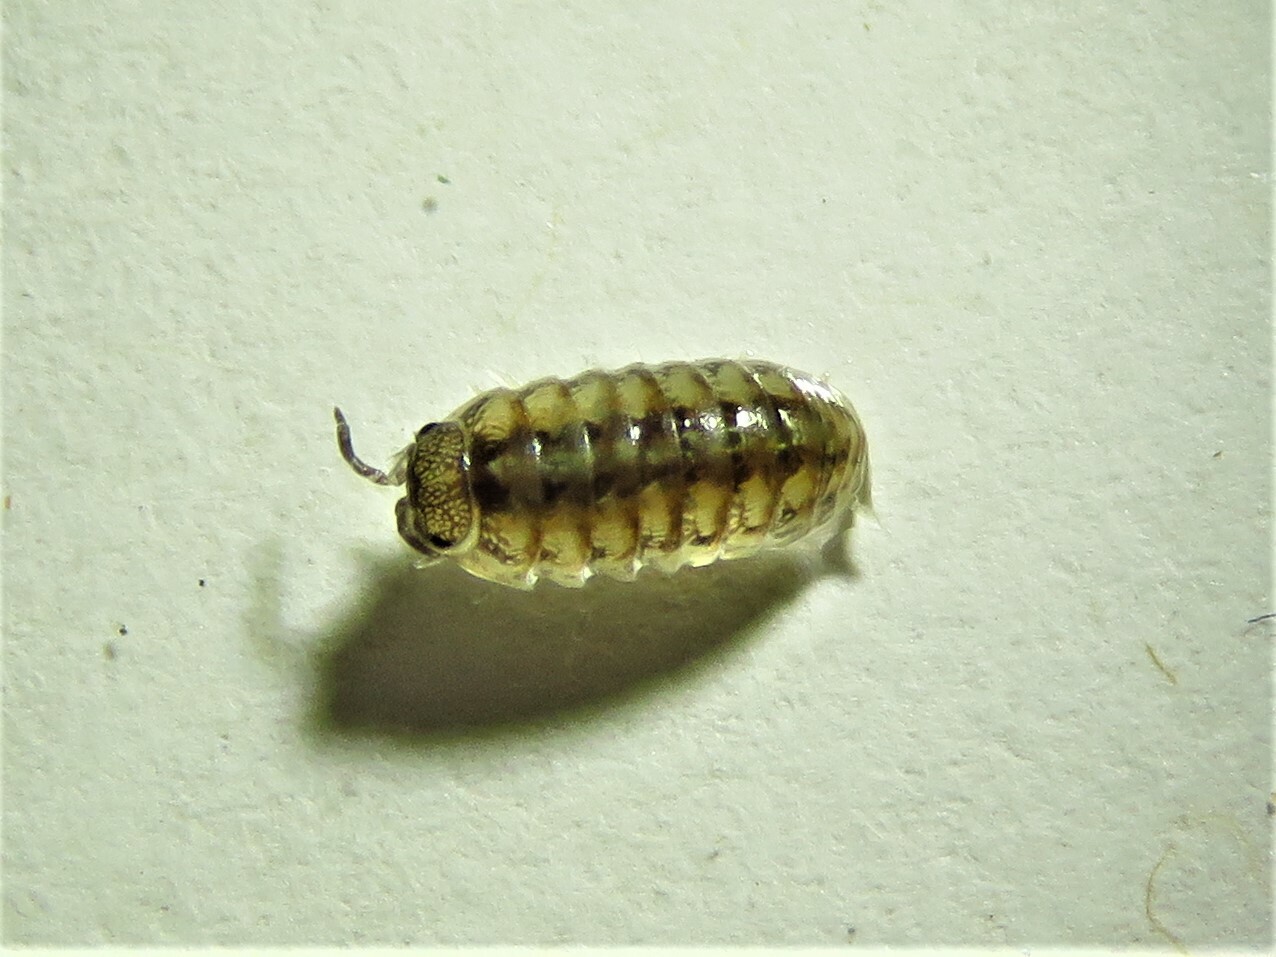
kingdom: Animalia
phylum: Arthropoda
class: Malacostraca
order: Isopoda
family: Armadillidiidae
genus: Armadillidium
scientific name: Armadillidium vulgare
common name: Common pill woodlouse
